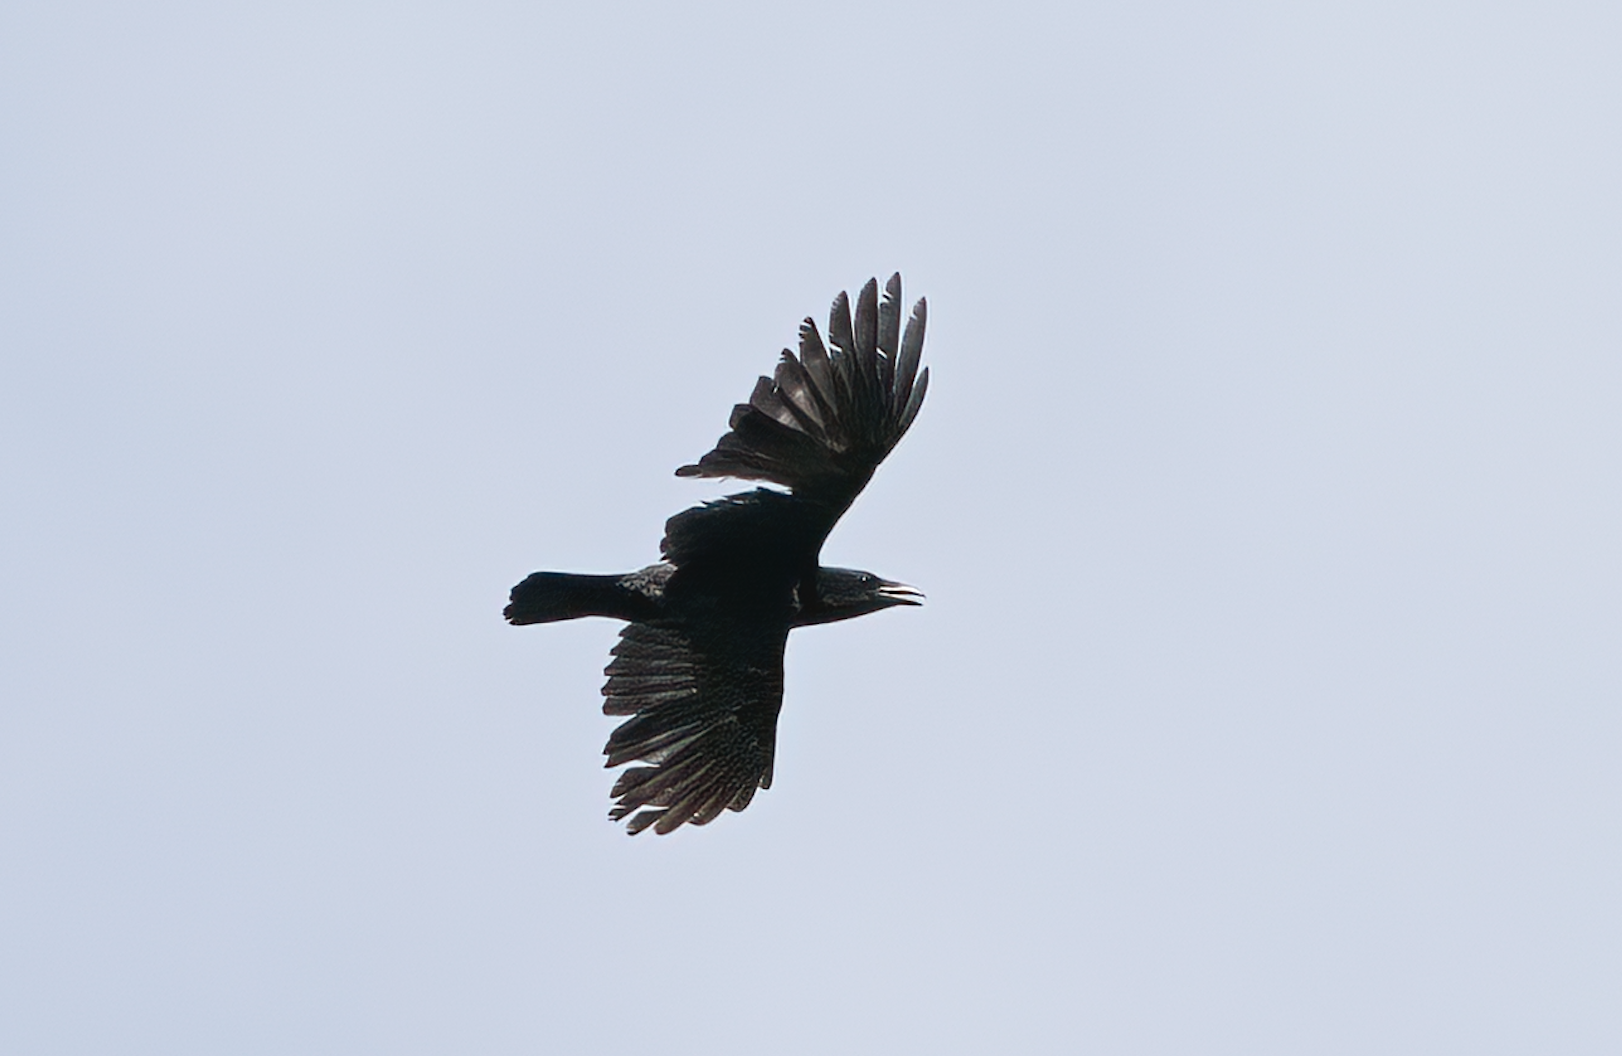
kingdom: Animalia
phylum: Chordata
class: Aves
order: Passeriformes
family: Corvidae
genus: Corvus
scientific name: Corvus corone
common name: Carrion crow
